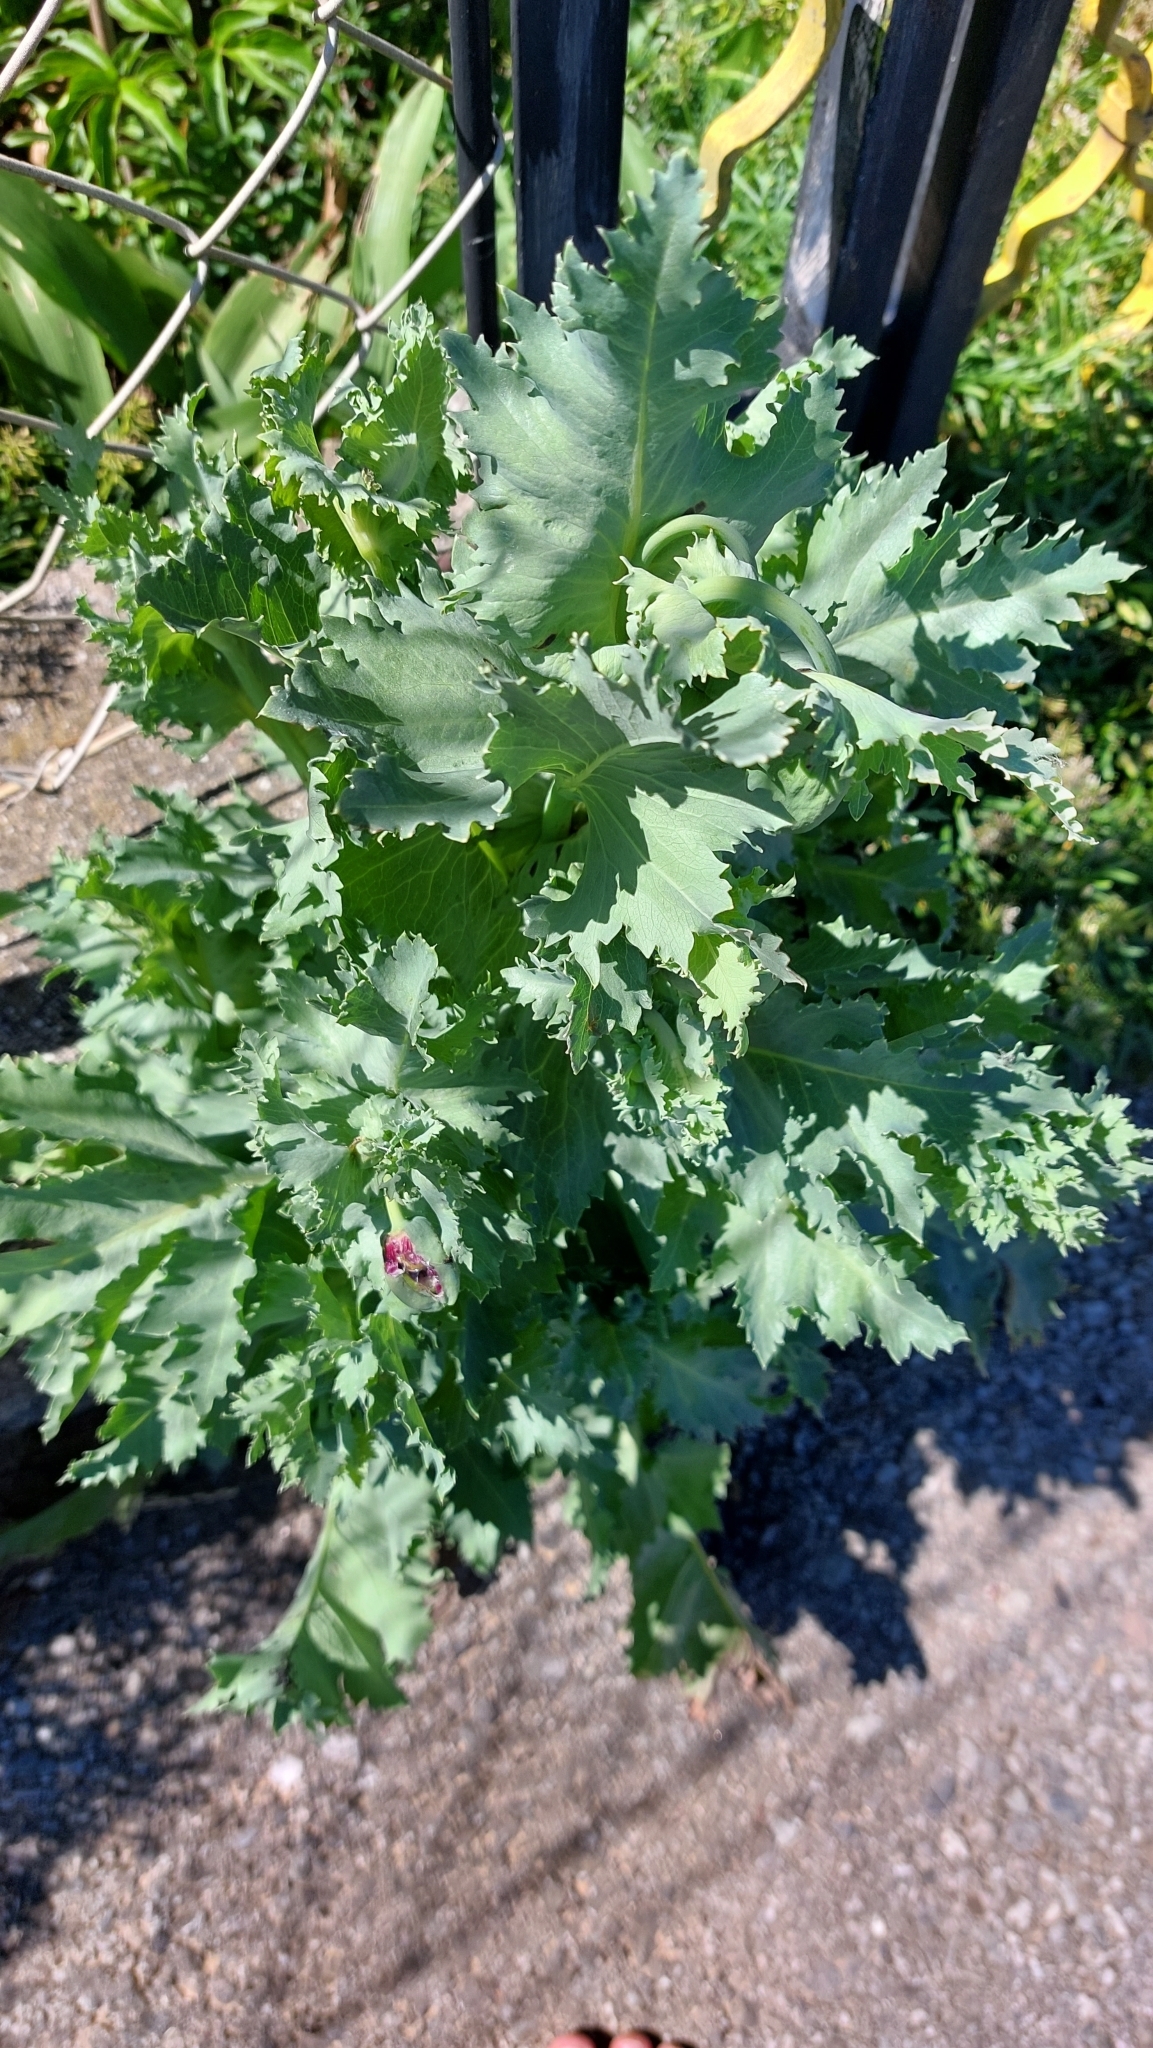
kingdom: Plantae
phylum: Tracheophyta
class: Magnoliopsida
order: Ranunculales
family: Papaveraceae
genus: Papaver
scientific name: Papaver somniferum
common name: Opium poppy
